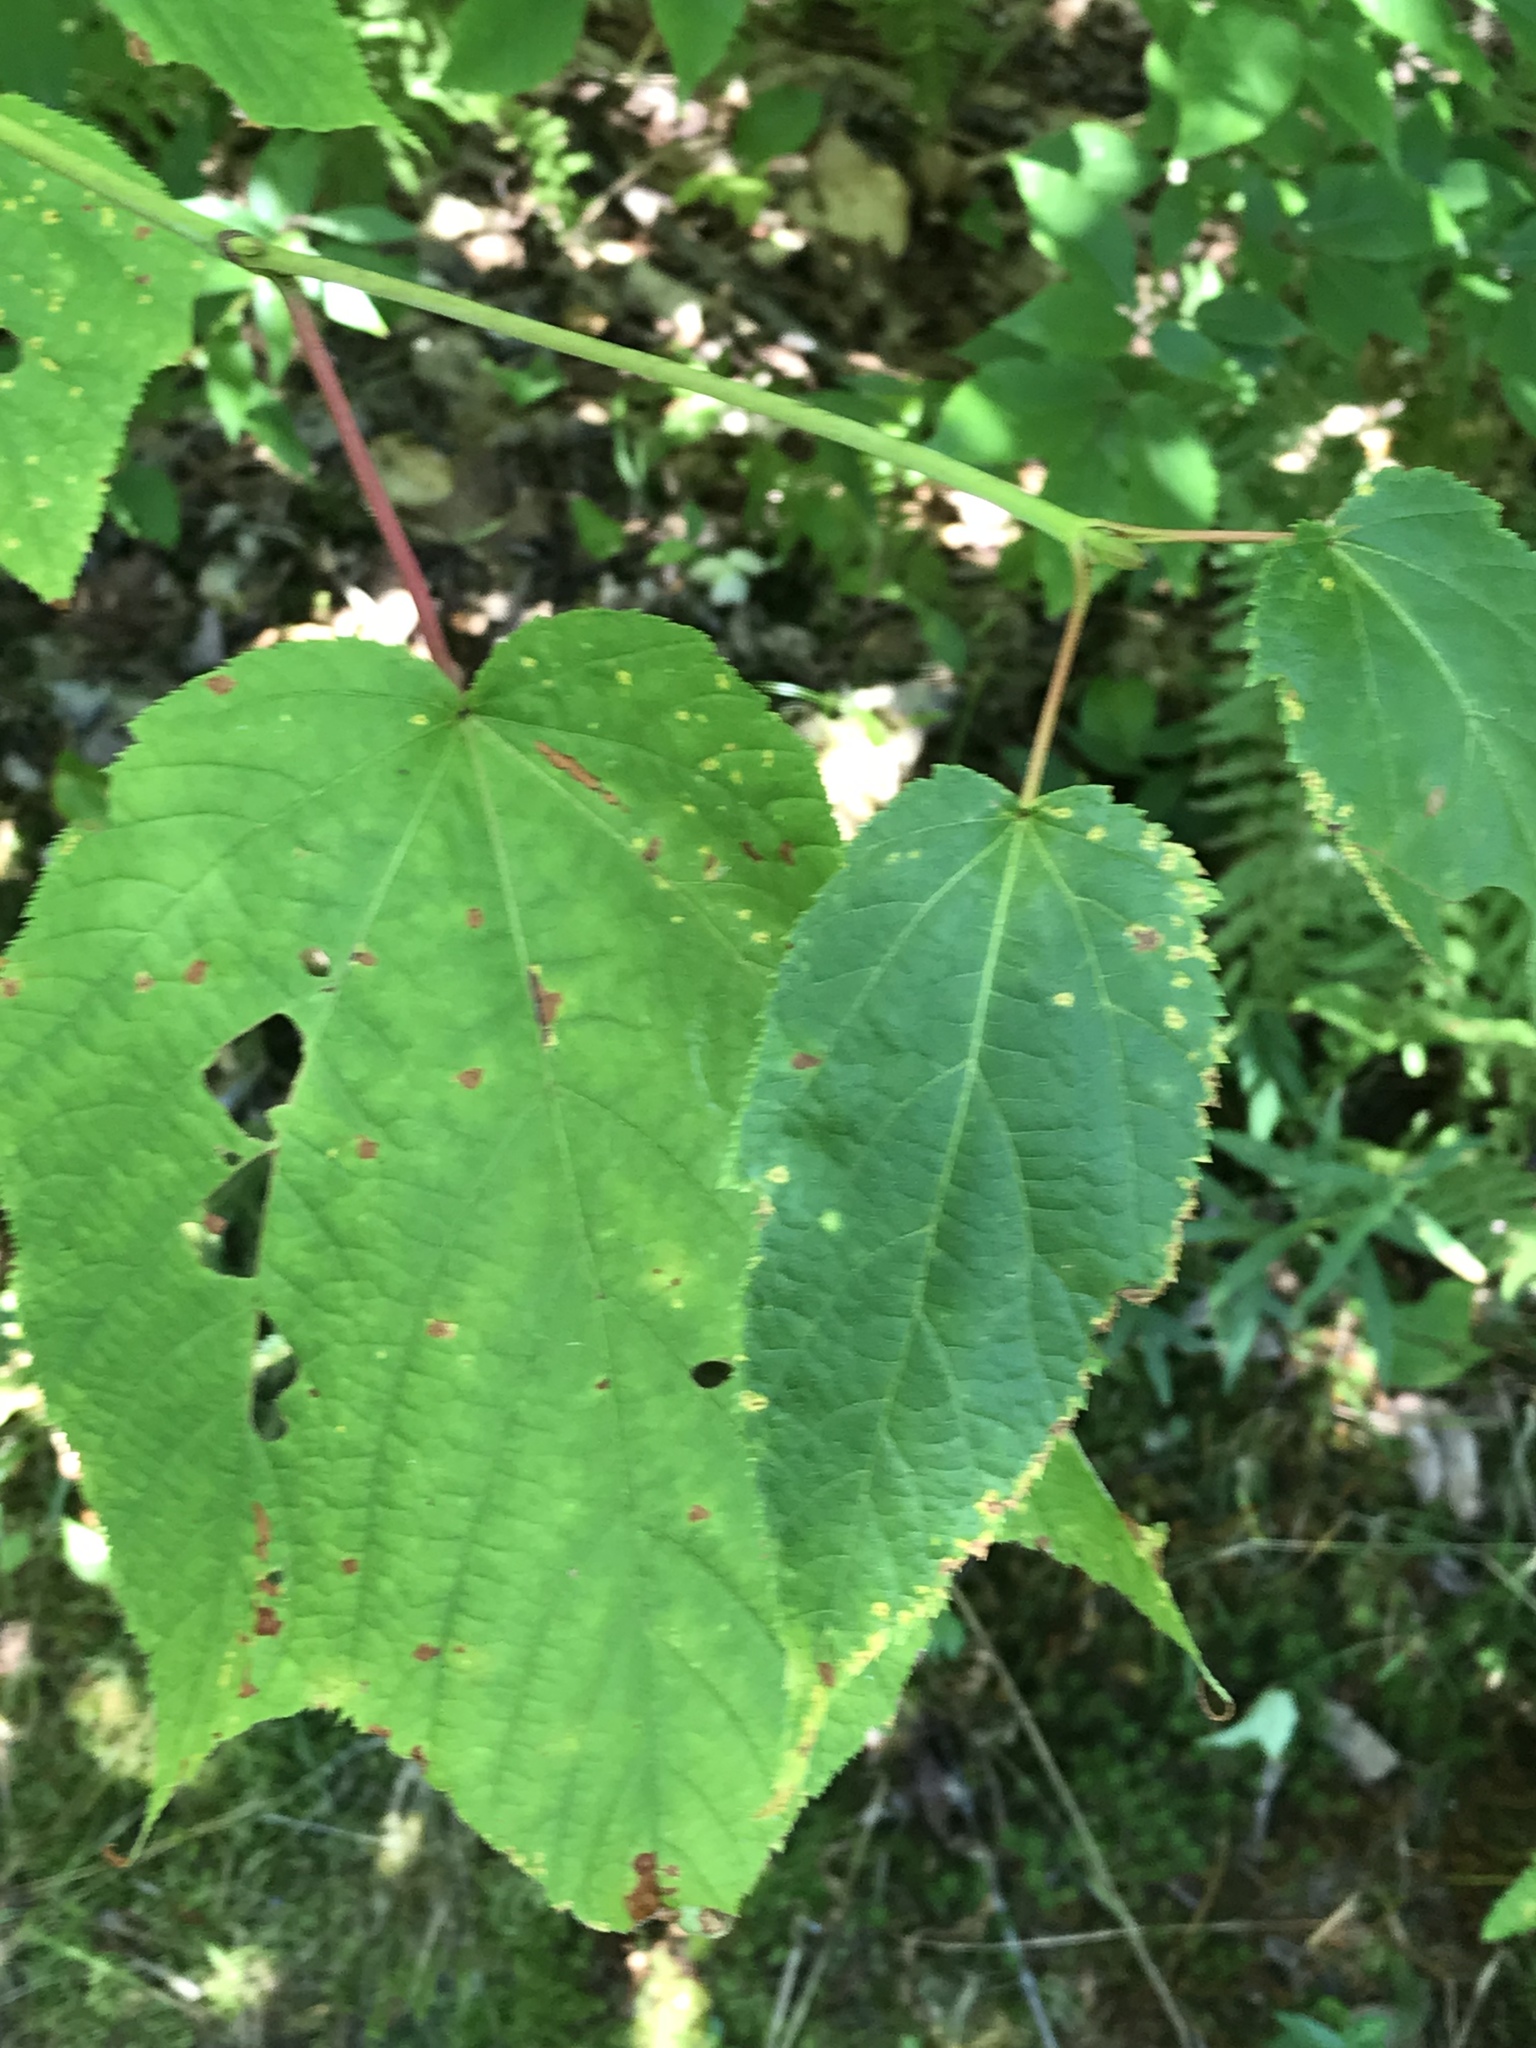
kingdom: Plantae
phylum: Tracheophyta
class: Magnoliopsida
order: Sapindales
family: Sapindaceae
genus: Acer
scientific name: Acer pensylvanicum
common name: Moosewood
